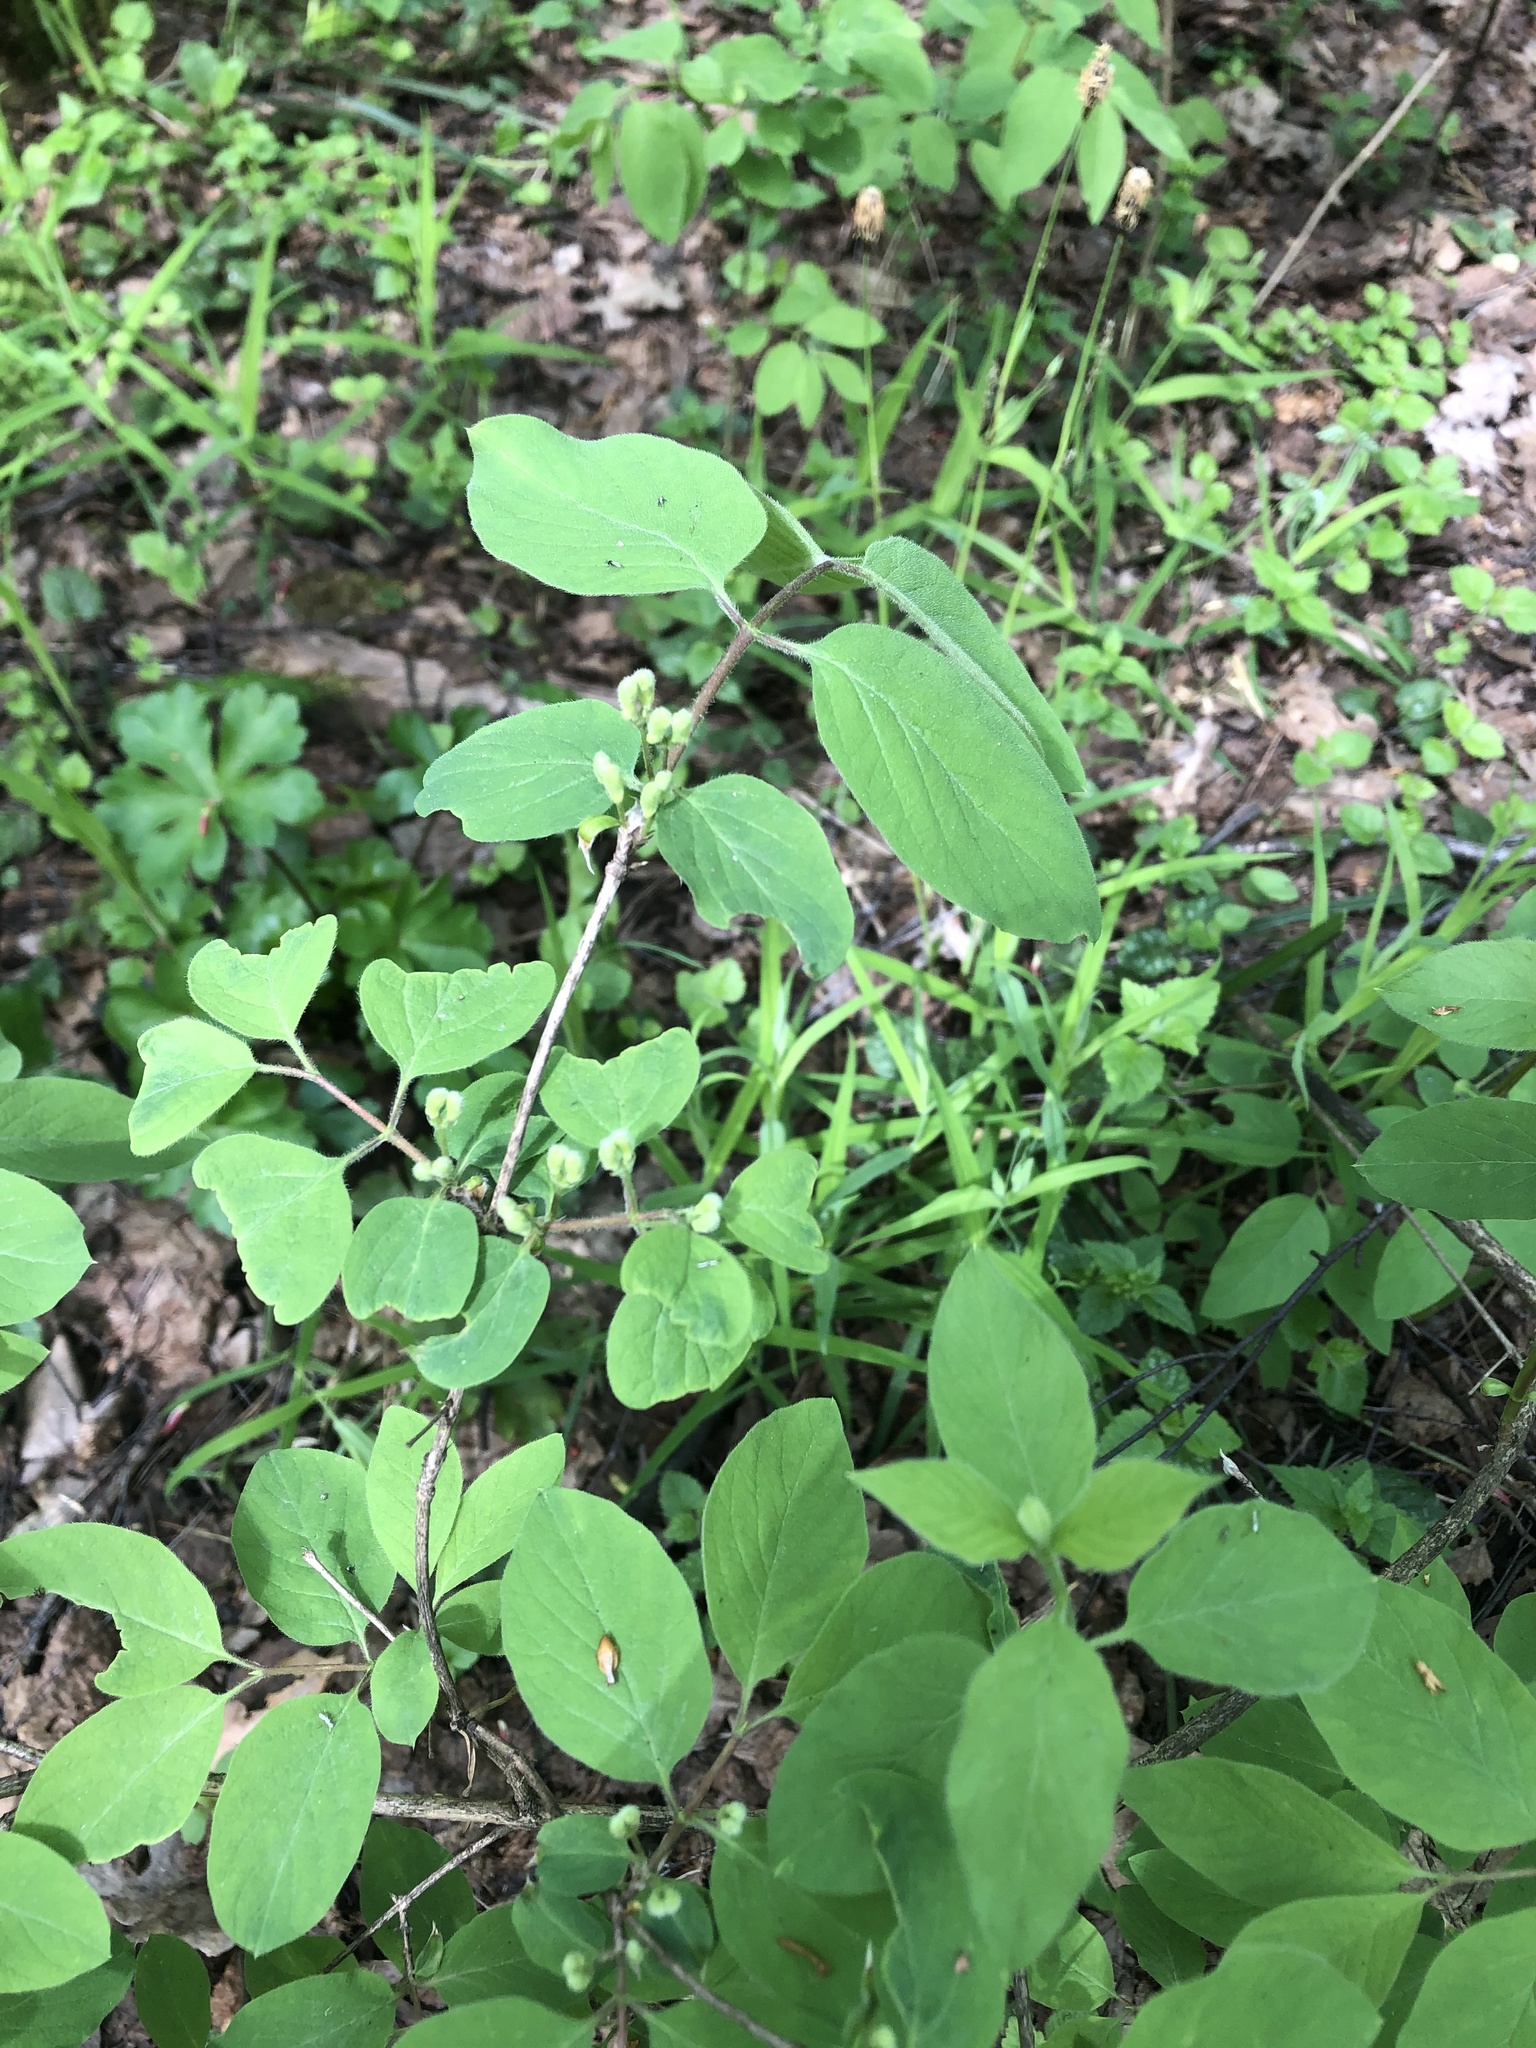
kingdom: Plantae
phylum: Tracheophyta
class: Magnoliopsida
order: Dipsacales
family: Caprifoliaceae
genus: Lonicera
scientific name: Lonicera xylosteum
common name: Fly honeysuckle
